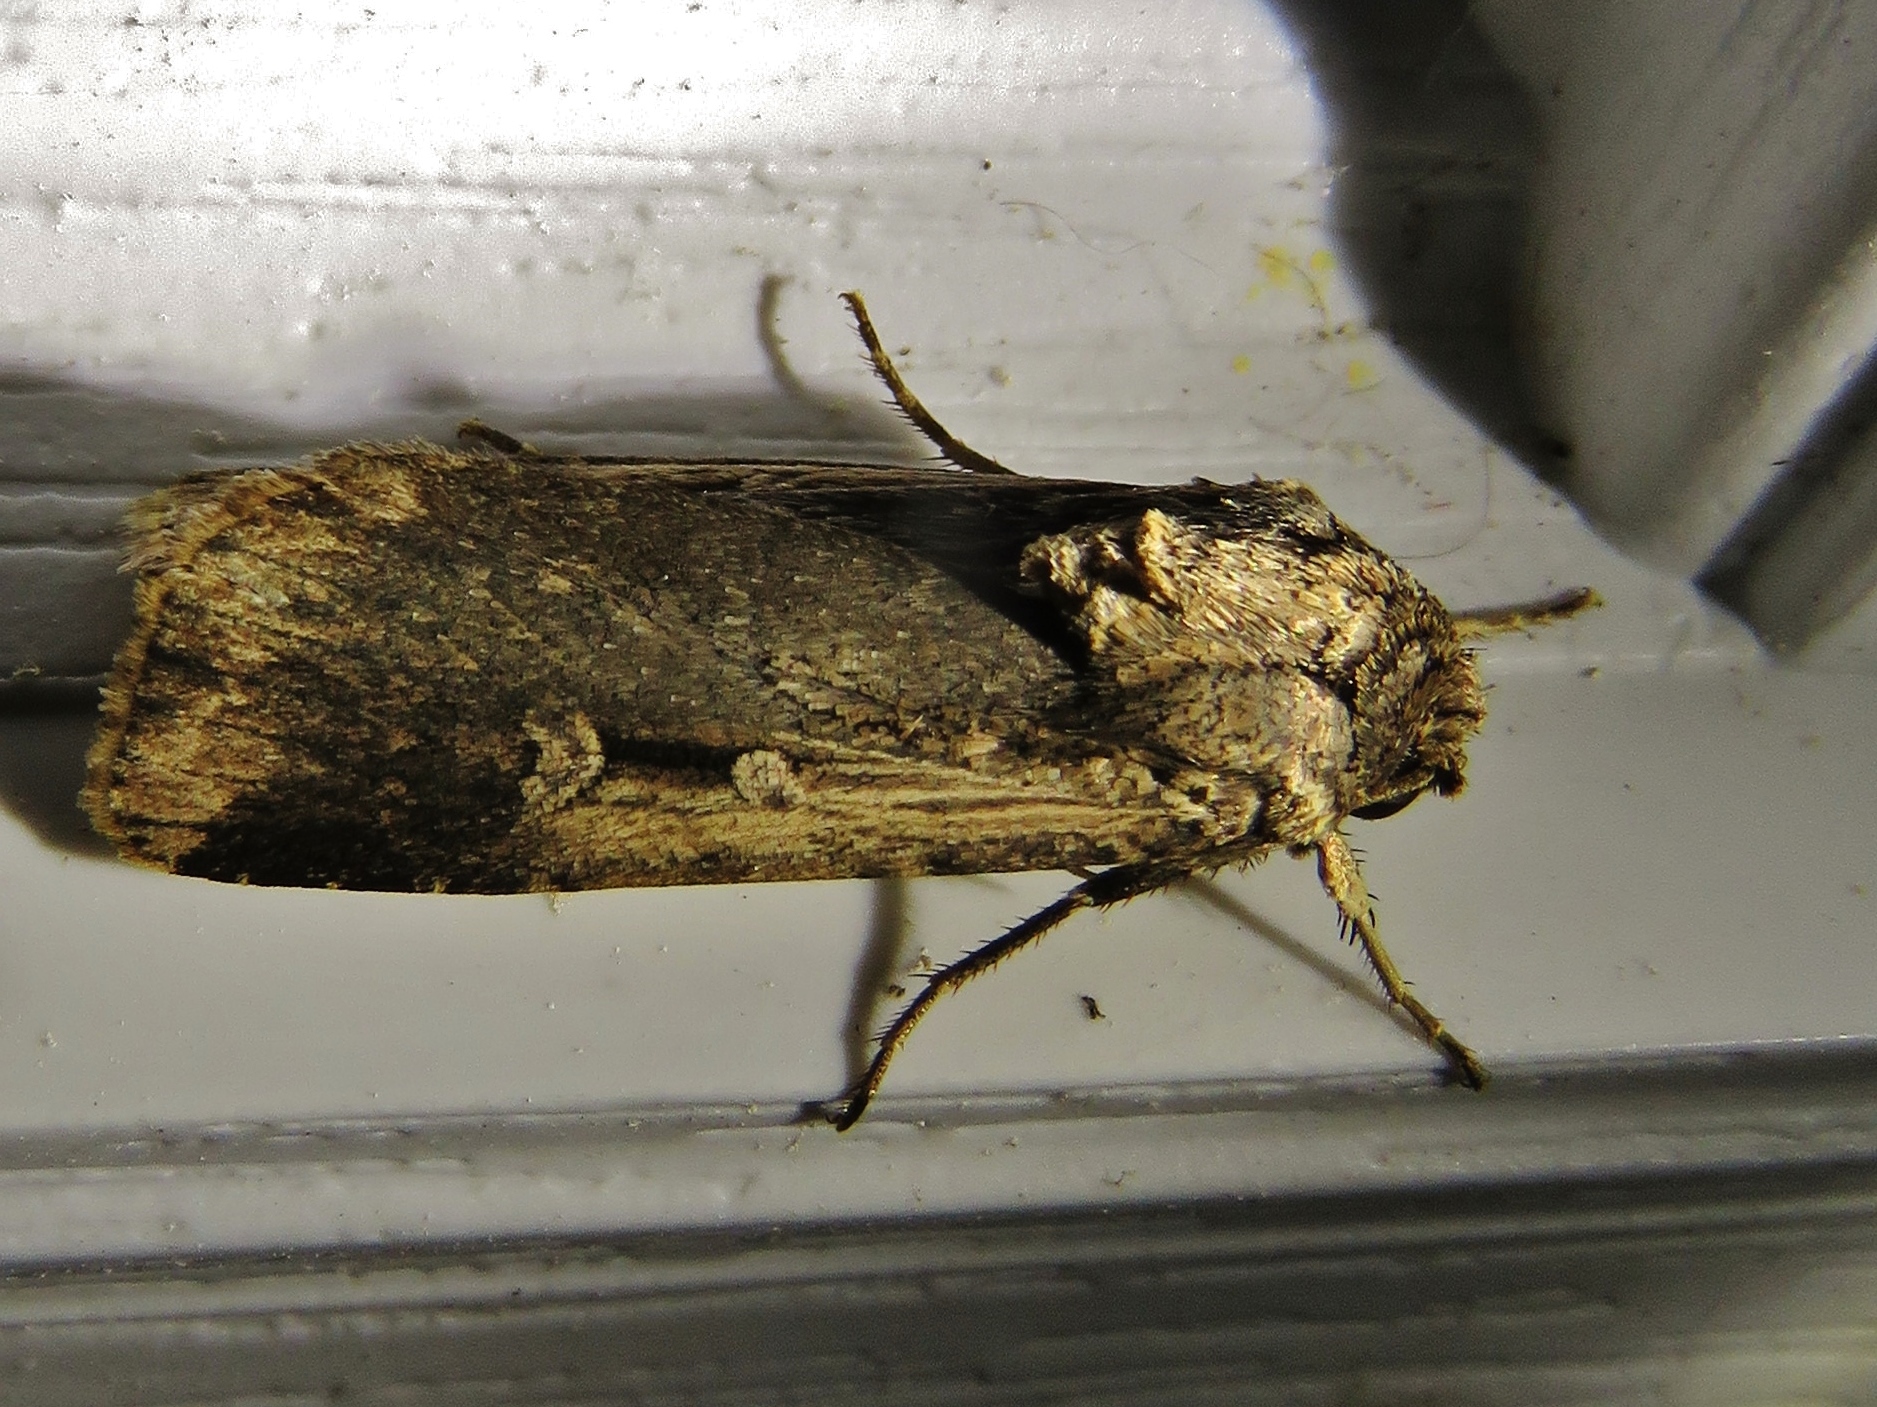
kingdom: Animalia
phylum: Arthropoda
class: Insecta
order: Lepidoptera
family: Noctuidae
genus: Feltia
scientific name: Feltia subterranea
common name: Granulate cutworm
